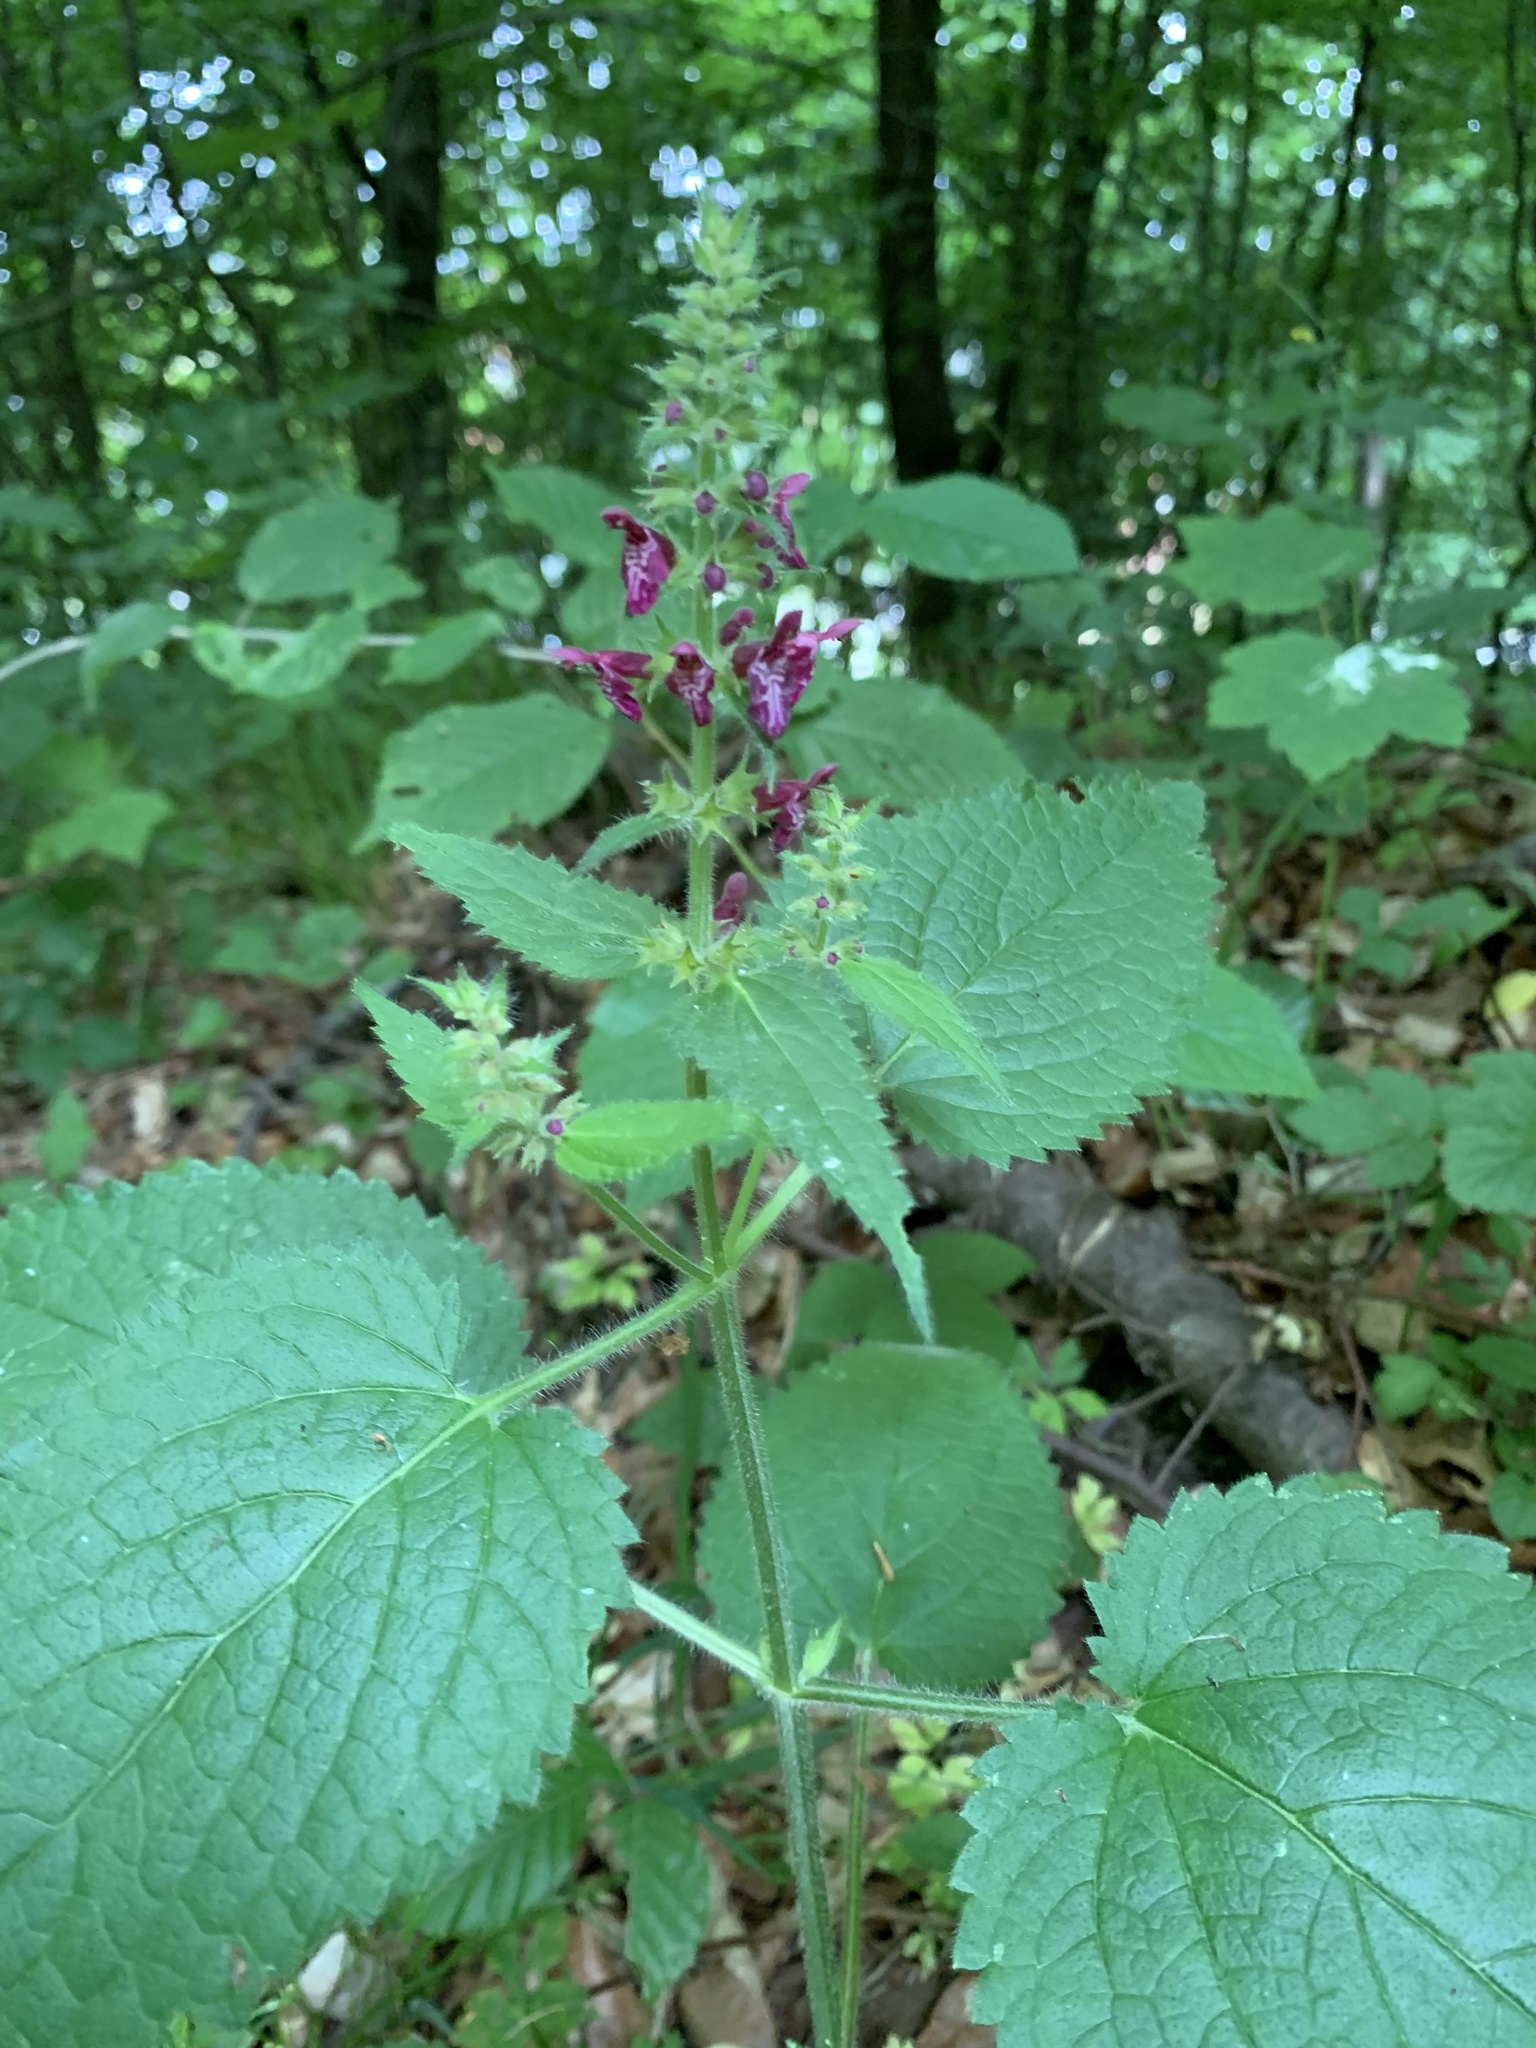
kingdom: Plantae
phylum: Tracheophyta
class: Magnoliopsida
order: Lamiales
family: Lamiaceae
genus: Stachys
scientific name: Stachys sylvatica
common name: Hedge woundwort
